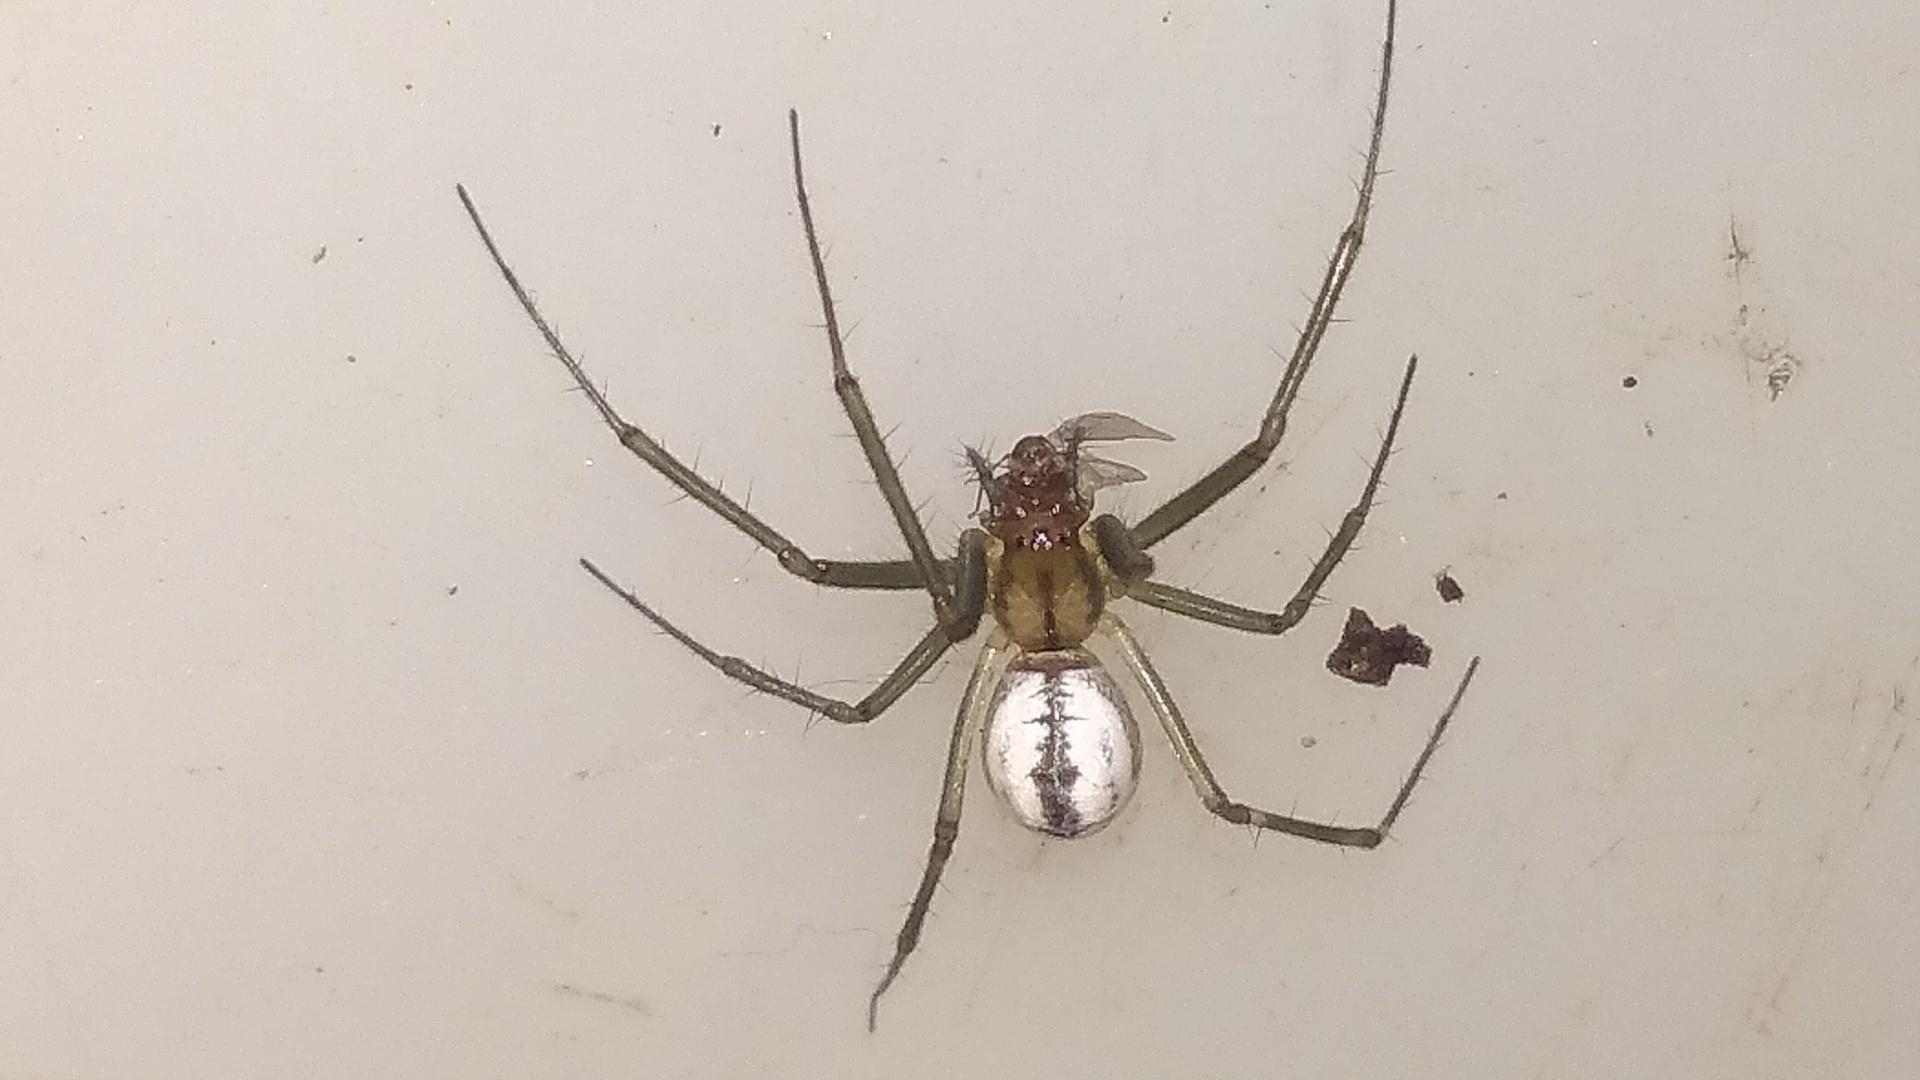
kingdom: Animalia
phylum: Arthropoda
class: Arachnida
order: Araneae
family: Linyphiidae
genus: Neriene
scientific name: Neriene emphana
